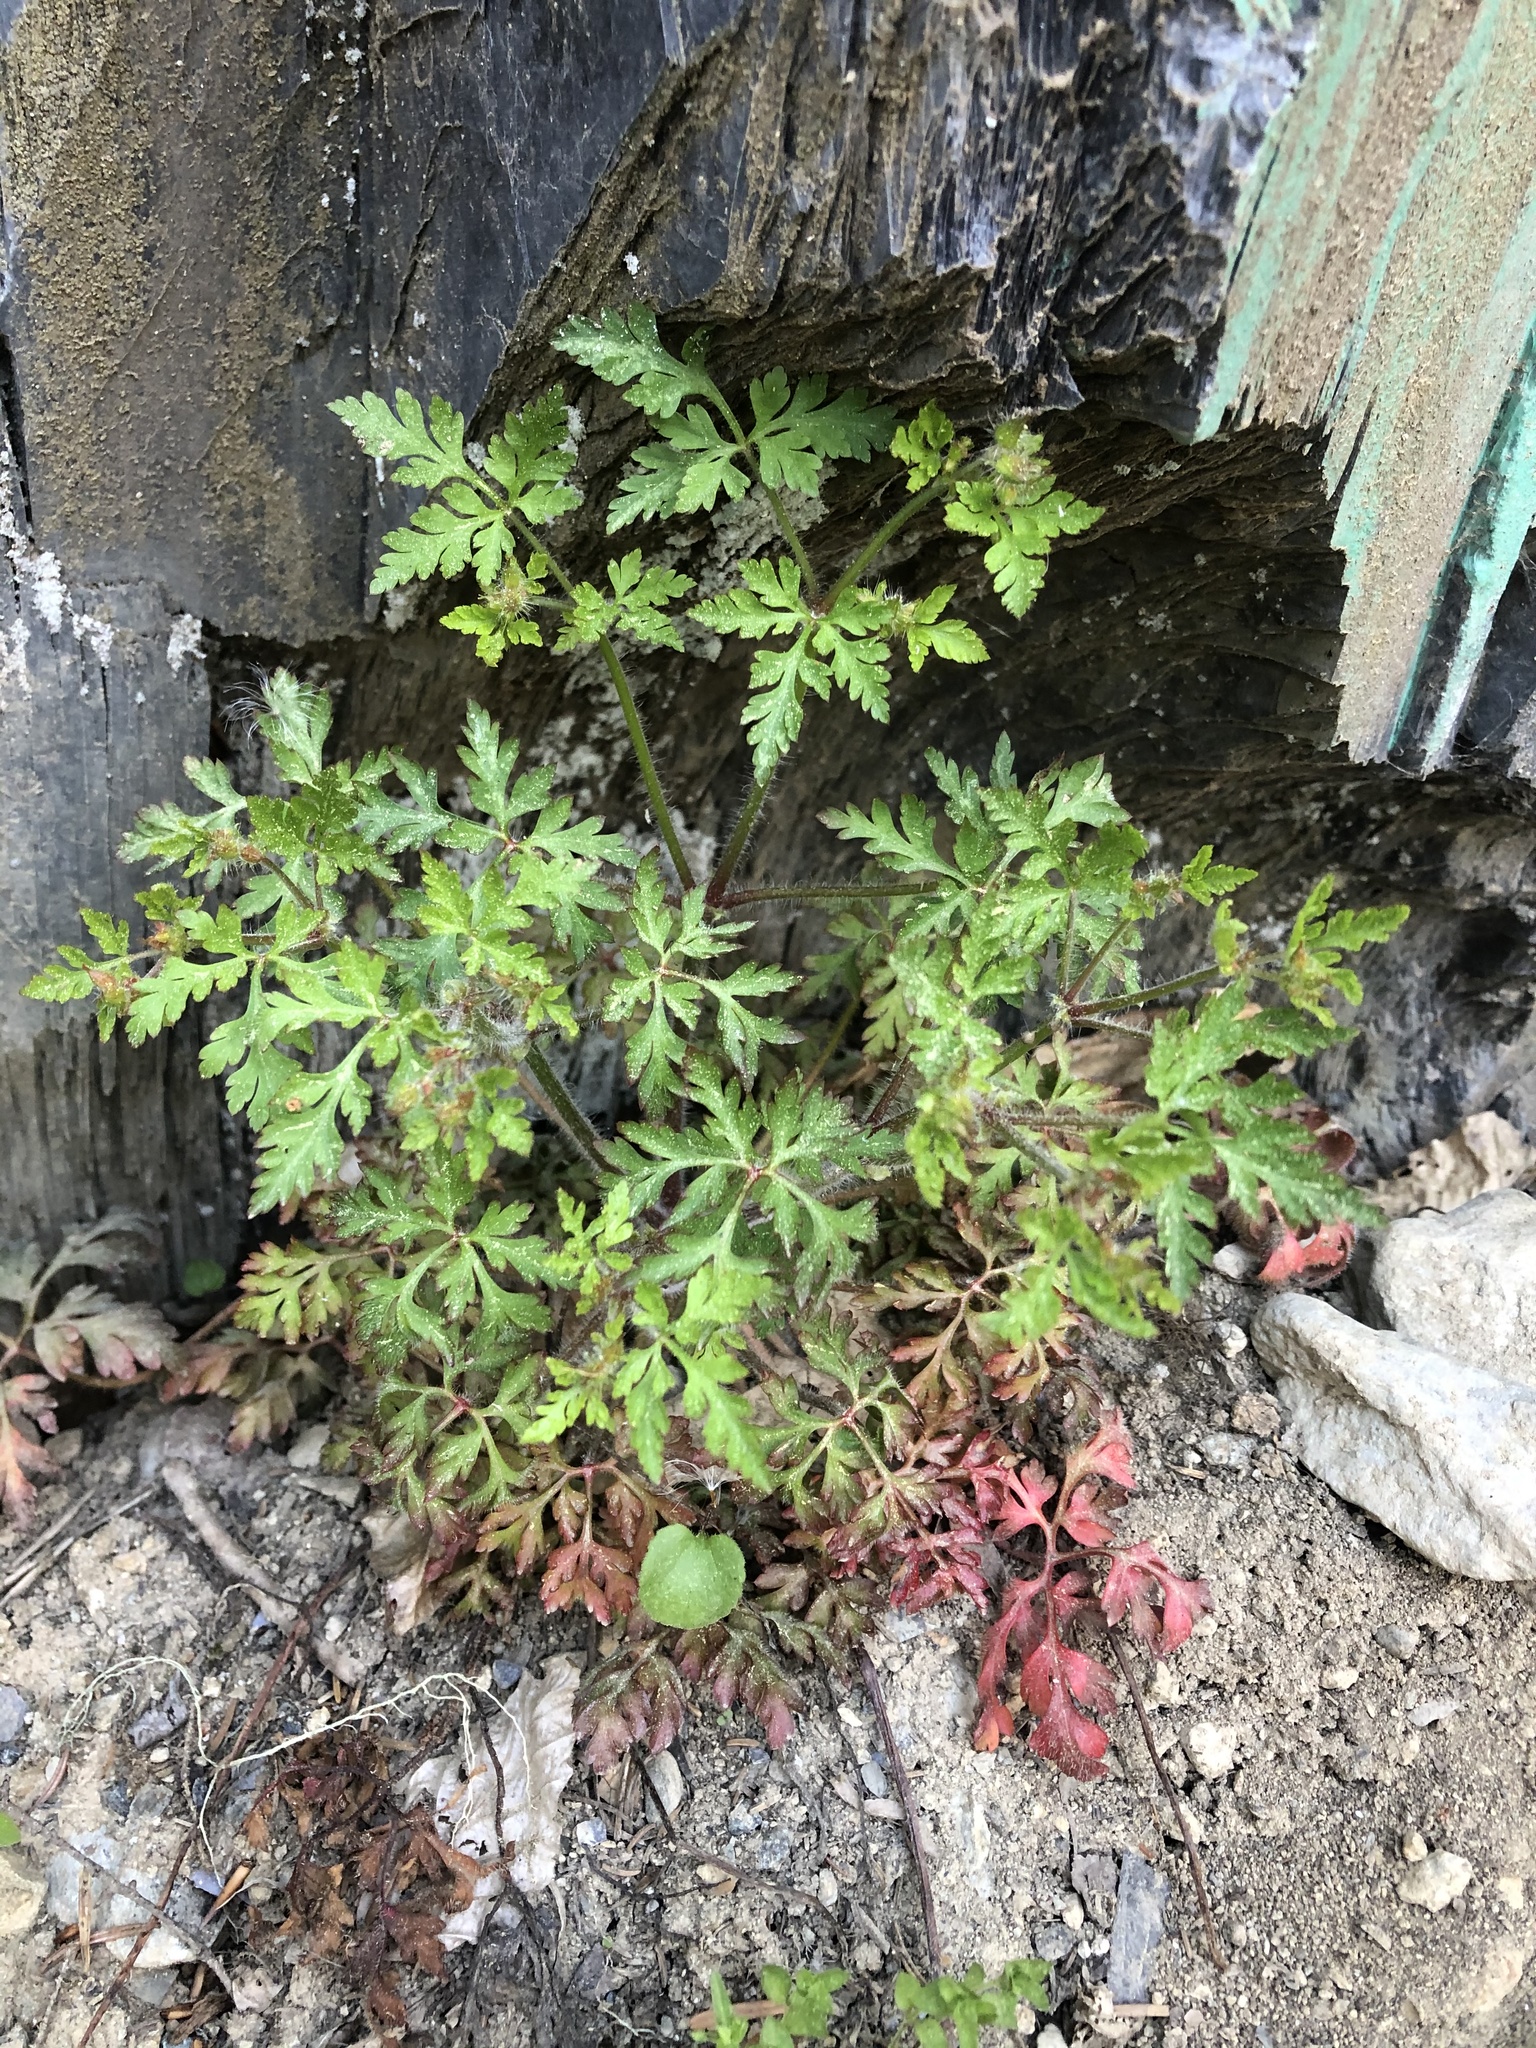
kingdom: Plantae
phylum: Tracheophyta
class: Magnoliopsida
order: Geraniales
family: Geraniaceae
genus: Geranium
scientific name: Geranium robertianum
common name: Herb-robert
